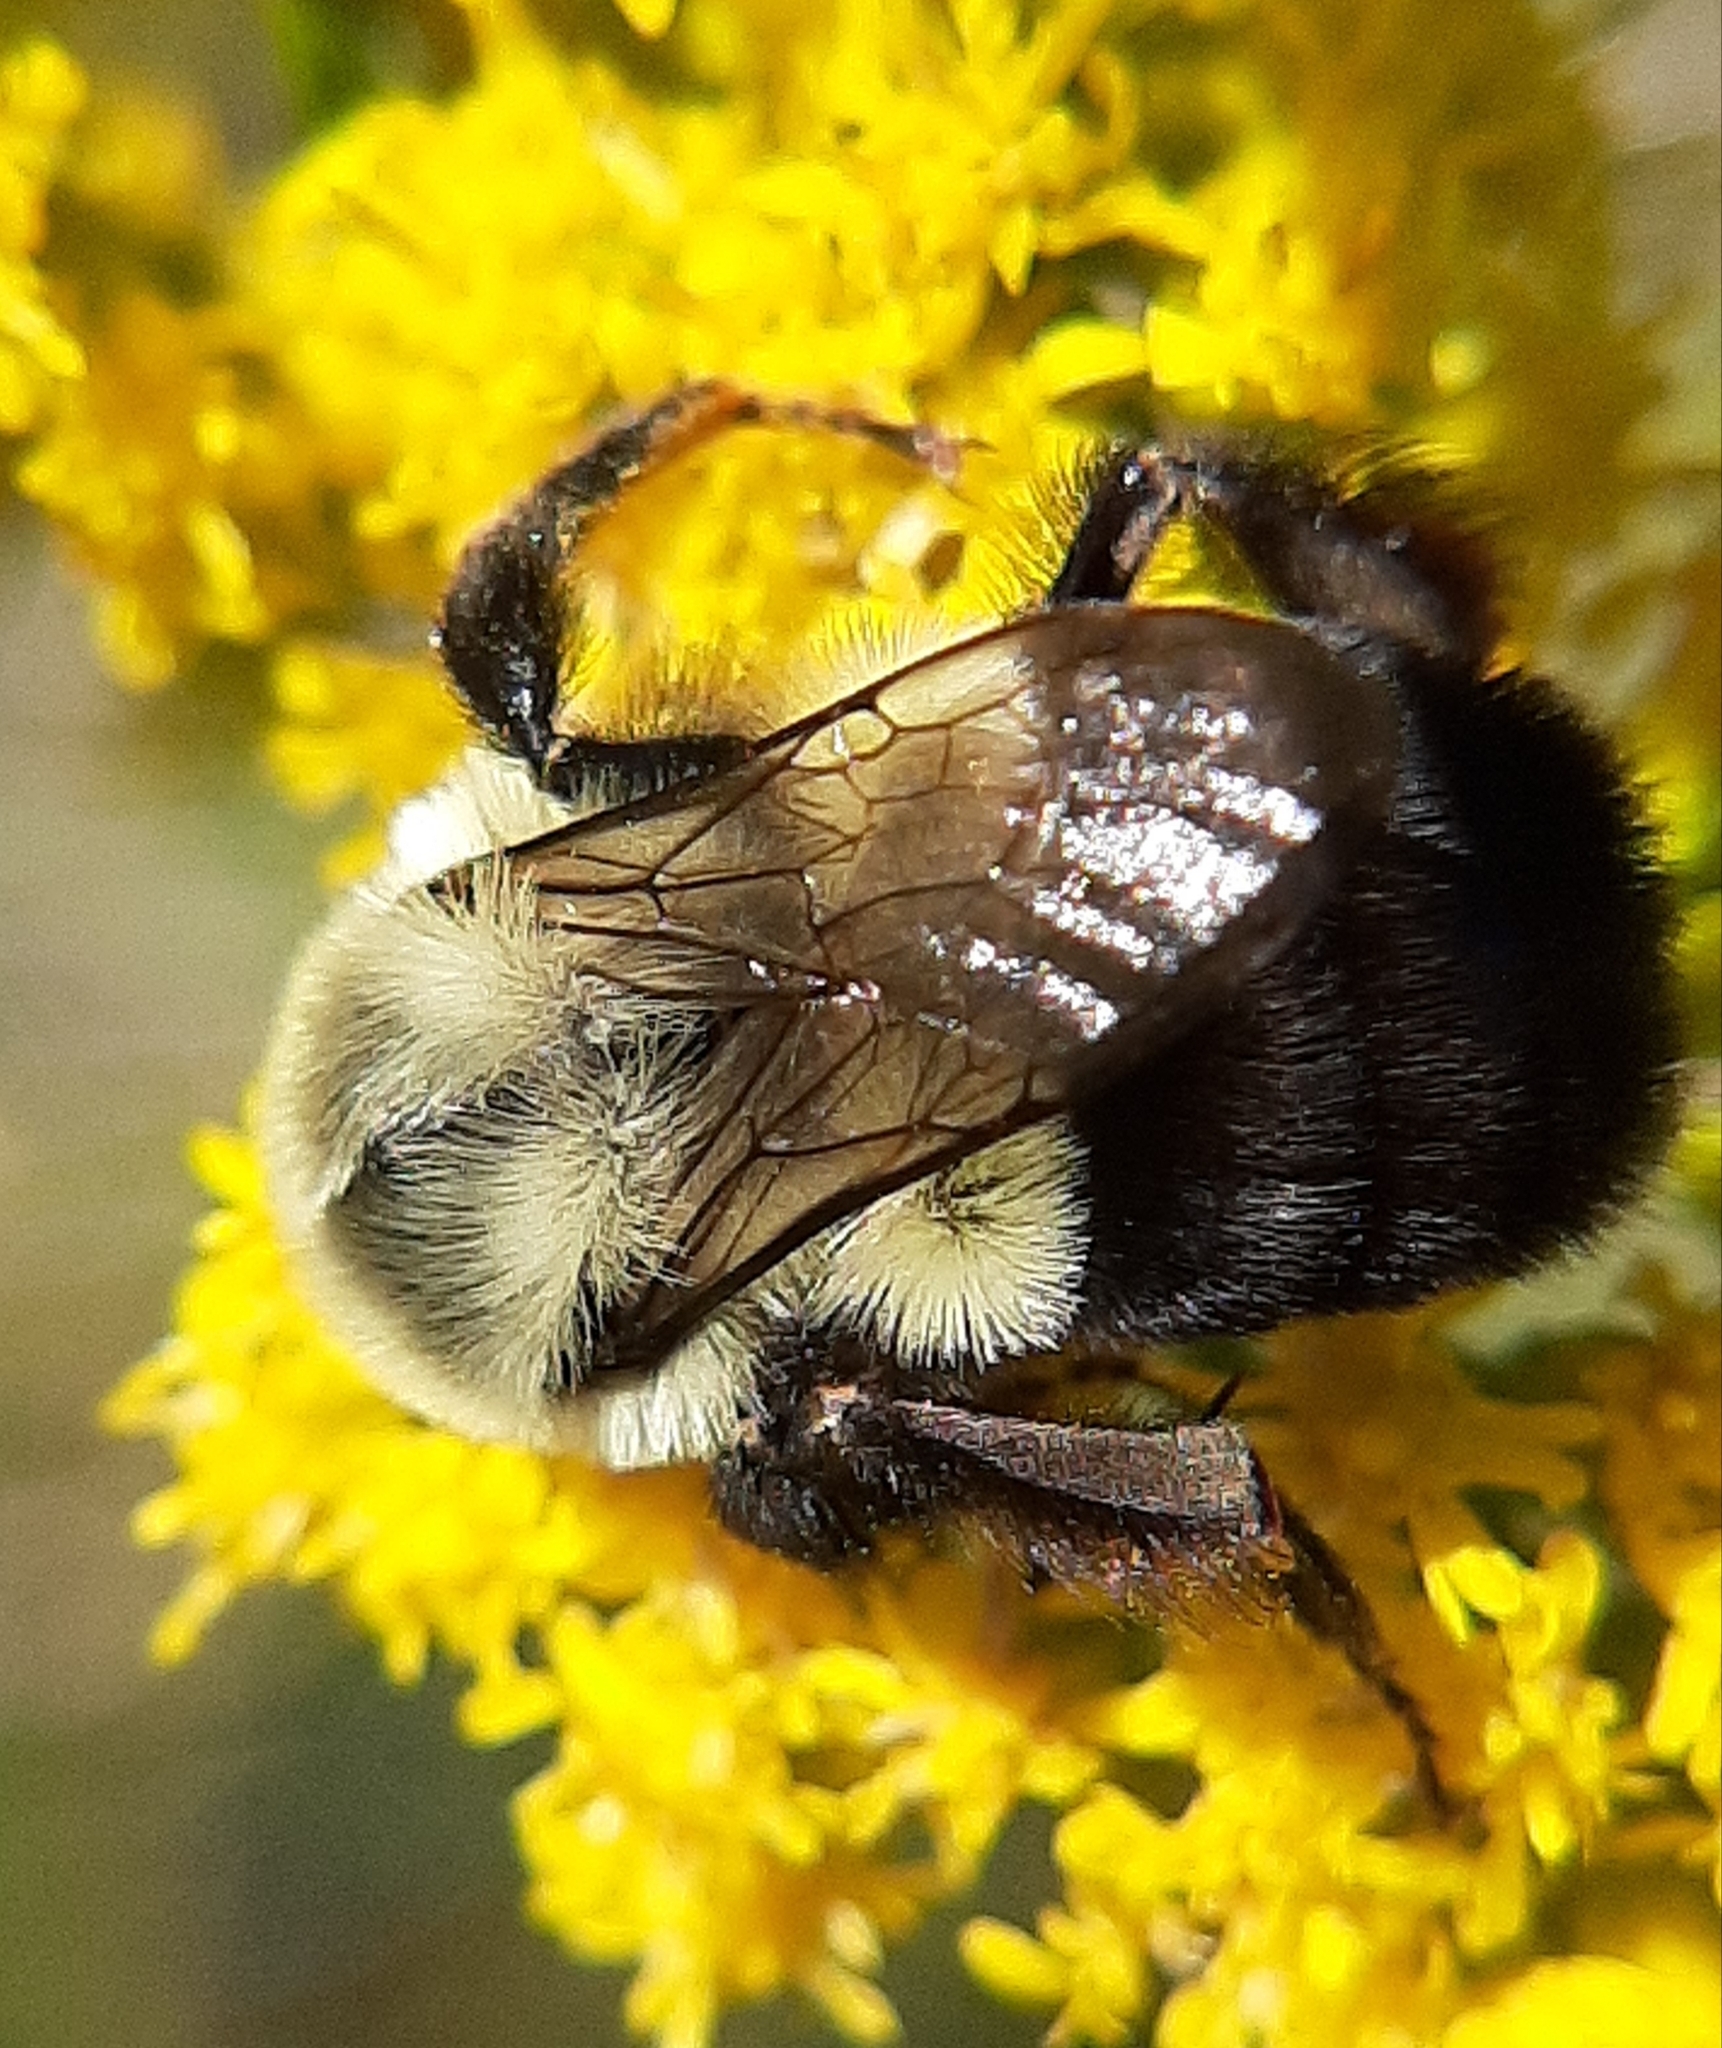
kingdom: Animalia
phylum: Arthropoda
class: Insecta
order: Hymenoptera
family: Apidae
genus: Bombus
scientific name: Bombus impatiens
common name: Common eastern bumble bee
